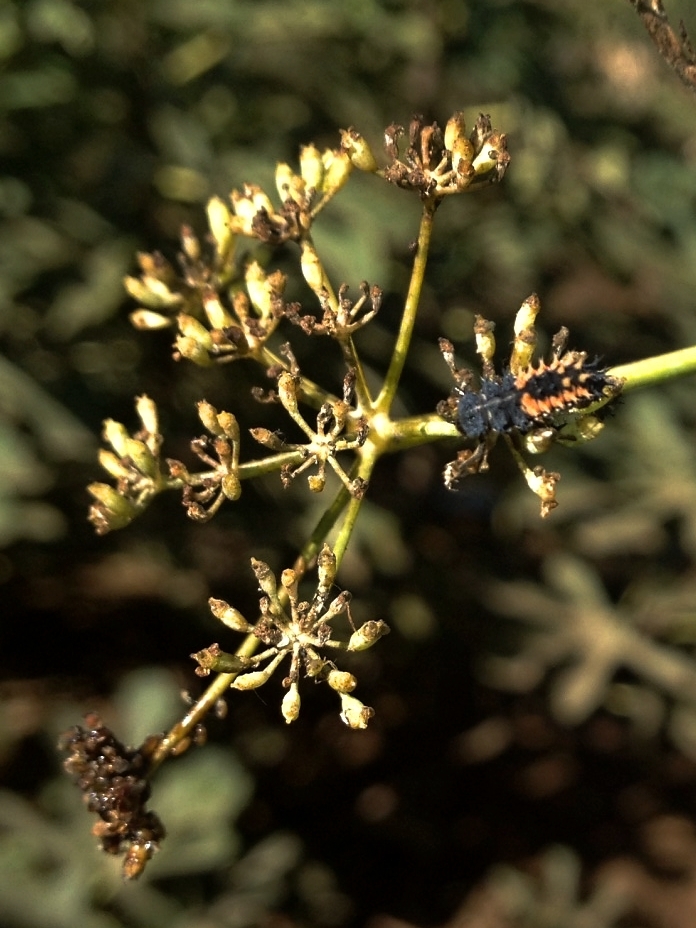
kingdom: Animalia
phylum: Arthropoda
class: Insecta
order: Coleoptera
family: Coccinellidae
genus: Harmonia
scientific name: Harmonia axyridis
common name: Harlequin ladybird
